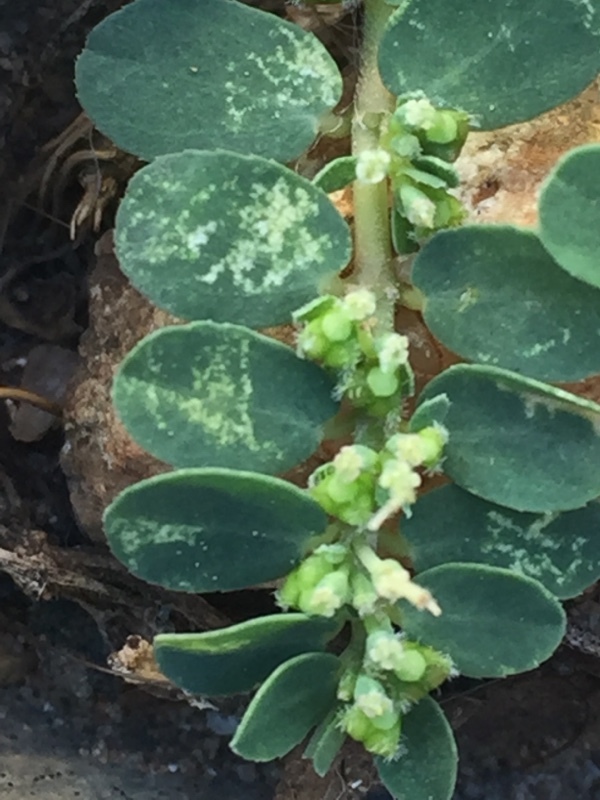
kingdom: Plantae
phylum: Tracheophyta
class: Magnoliopsida
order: Malpighiales
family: Euphorbiaceae
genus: Euphorbia
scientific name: Euphorbia prostrata
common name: Prostrate sandmat
